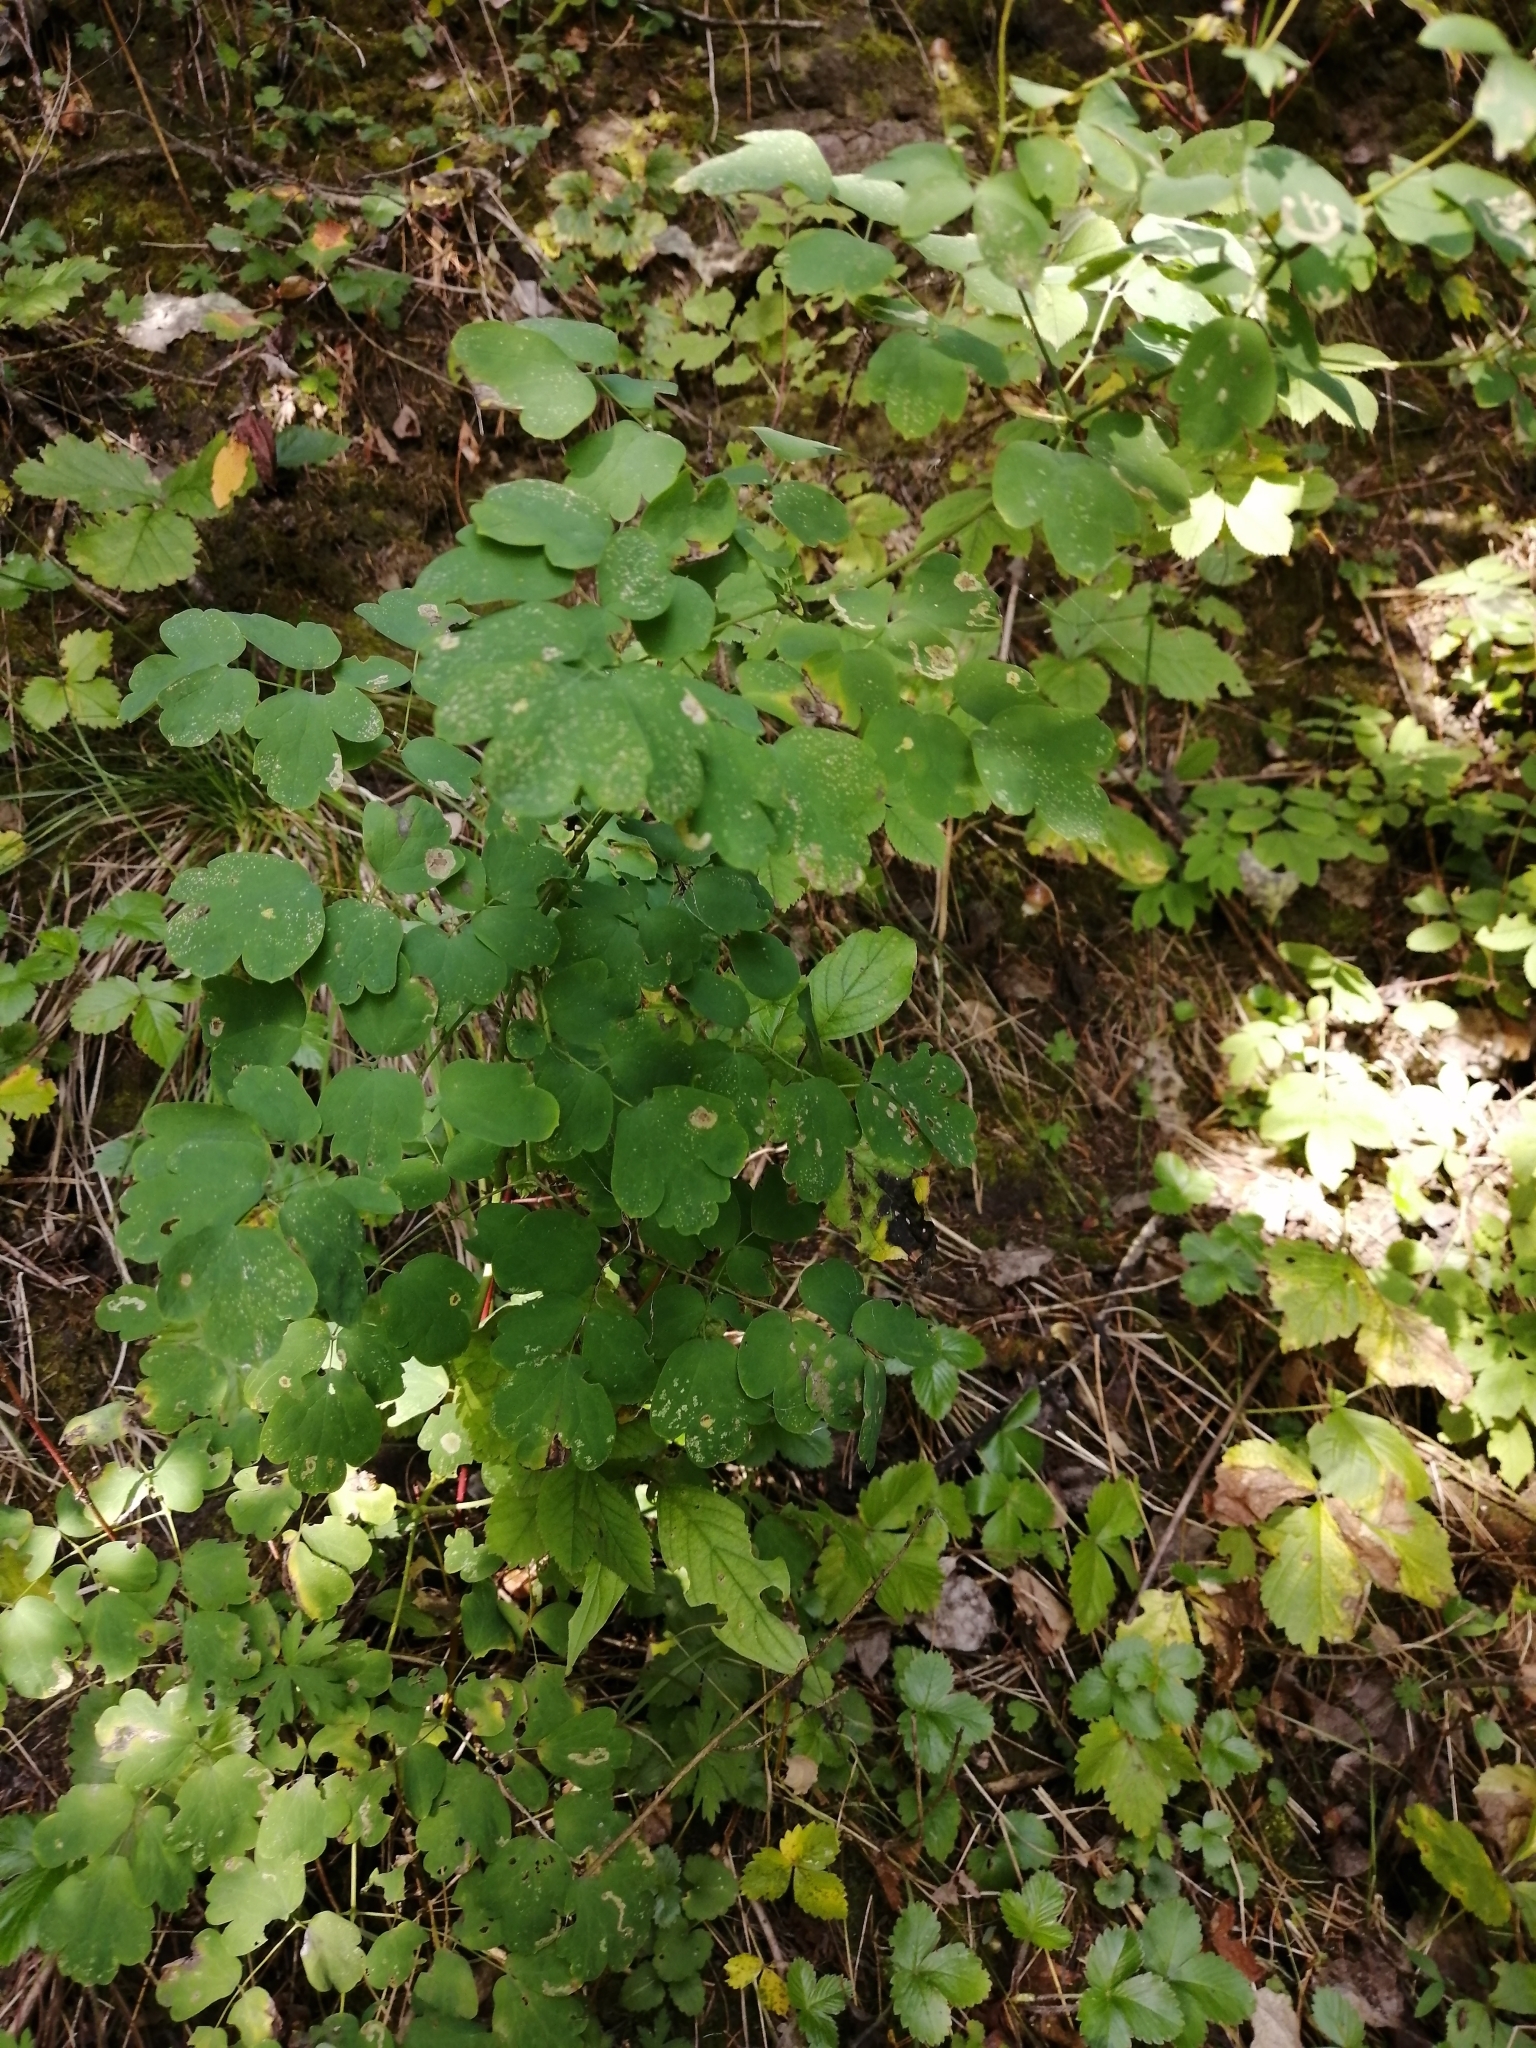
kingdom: Plantae
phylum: Tracheophyta
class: Magnoliopsida
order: Ranunculales
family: Ranunculaceae
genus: Thalictrum
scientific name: Thalictrum minus
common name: Lesser meadow-rue
